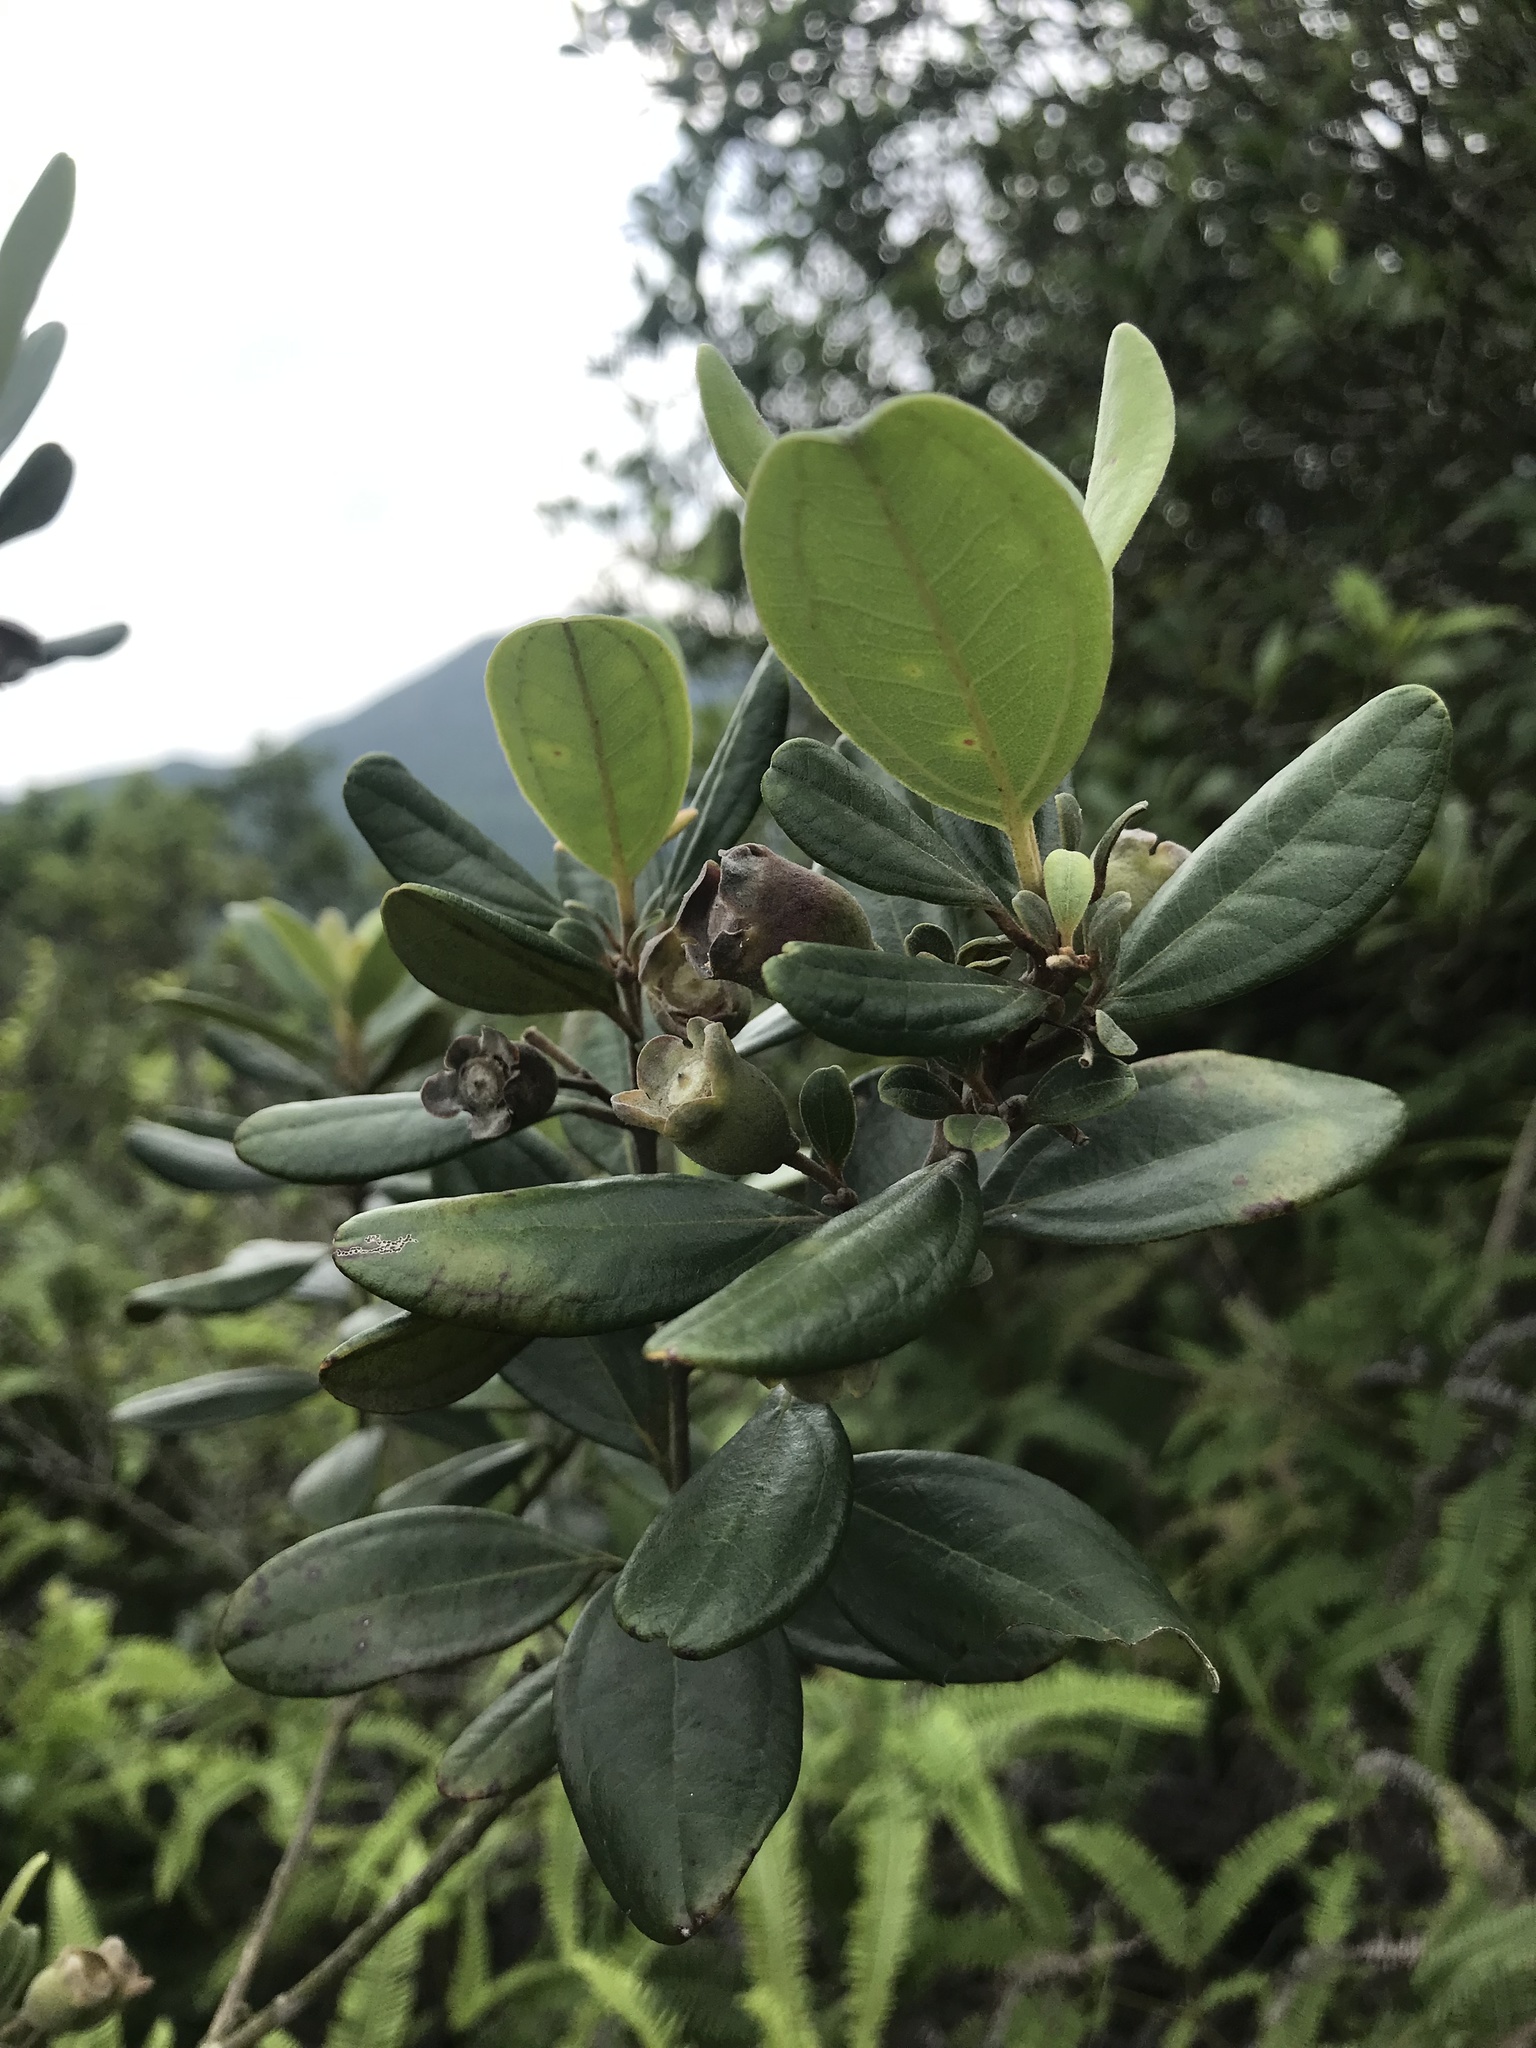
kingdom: Plantae
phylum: Tracheophyta
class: Magnoliopsida
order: Myrtales
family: Myrtaceae
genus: Rhodomyrtus
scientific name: Rhodomyrtus tomentosa
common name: Rose myrtle
